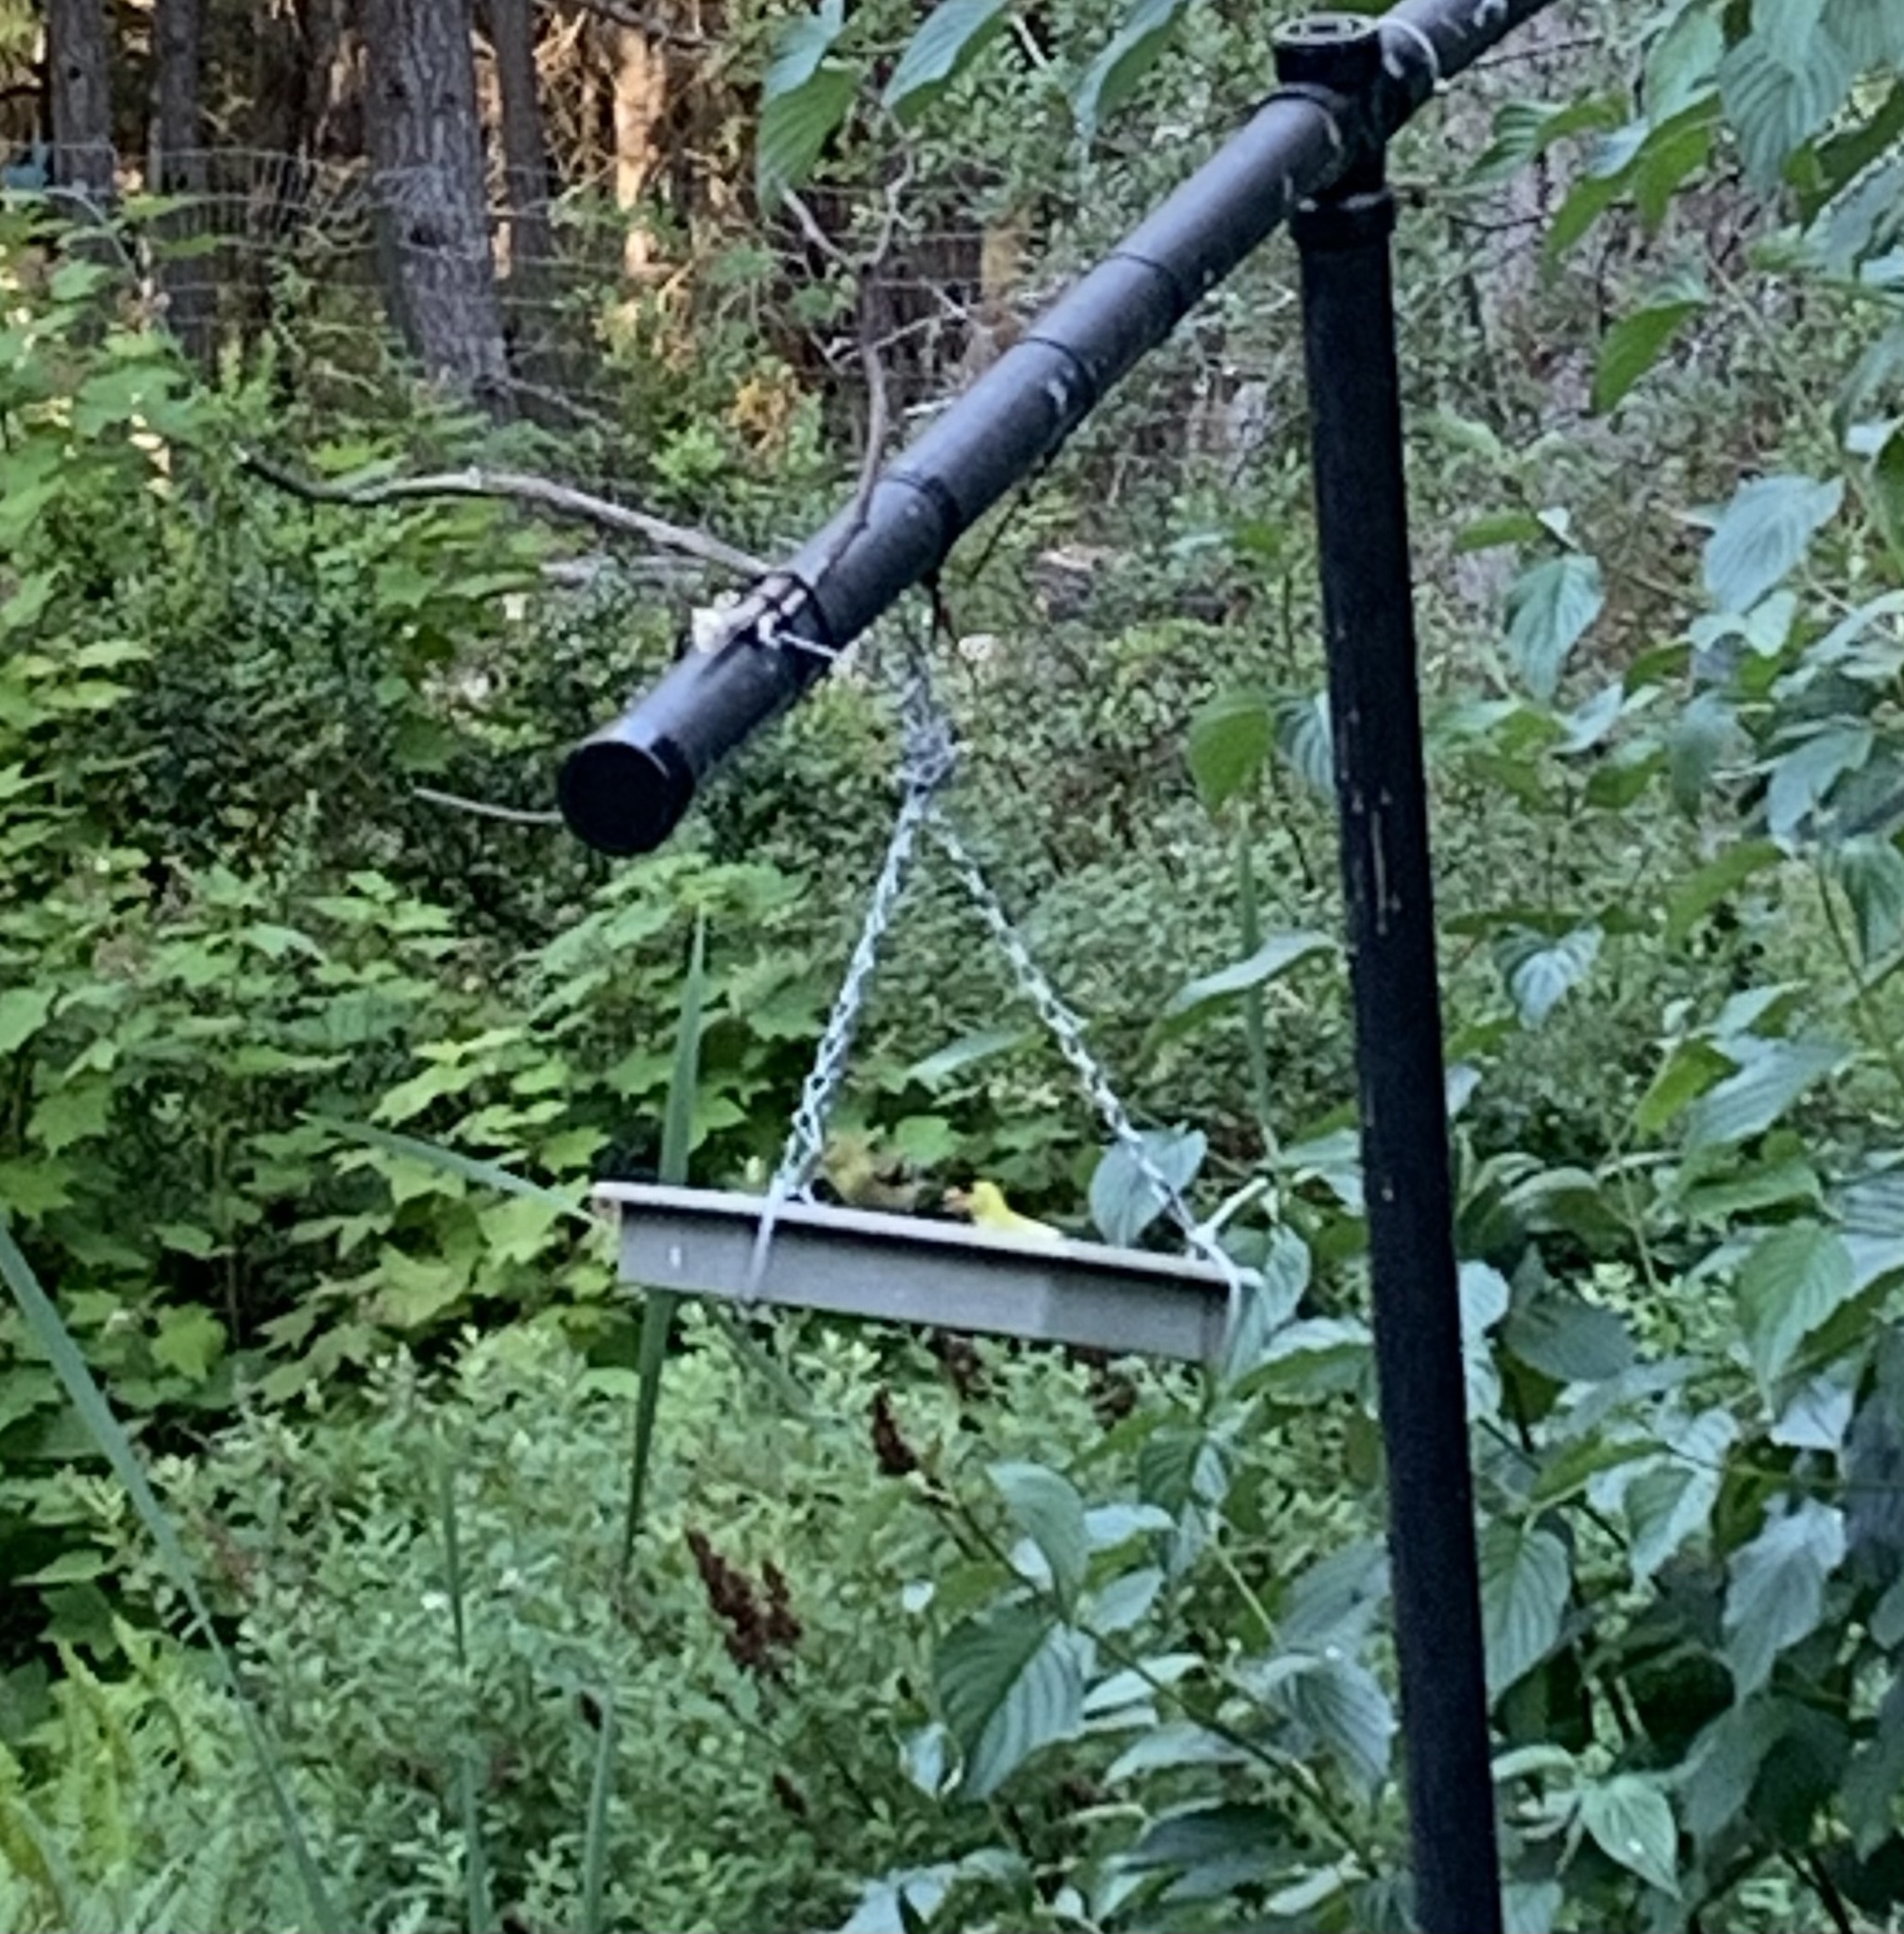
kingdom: Animalia
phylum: Chordata
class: Aves
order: Passeriformes
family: Fringillidae
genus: Spinus
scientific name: Spinus tristis
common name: American goldfinch
